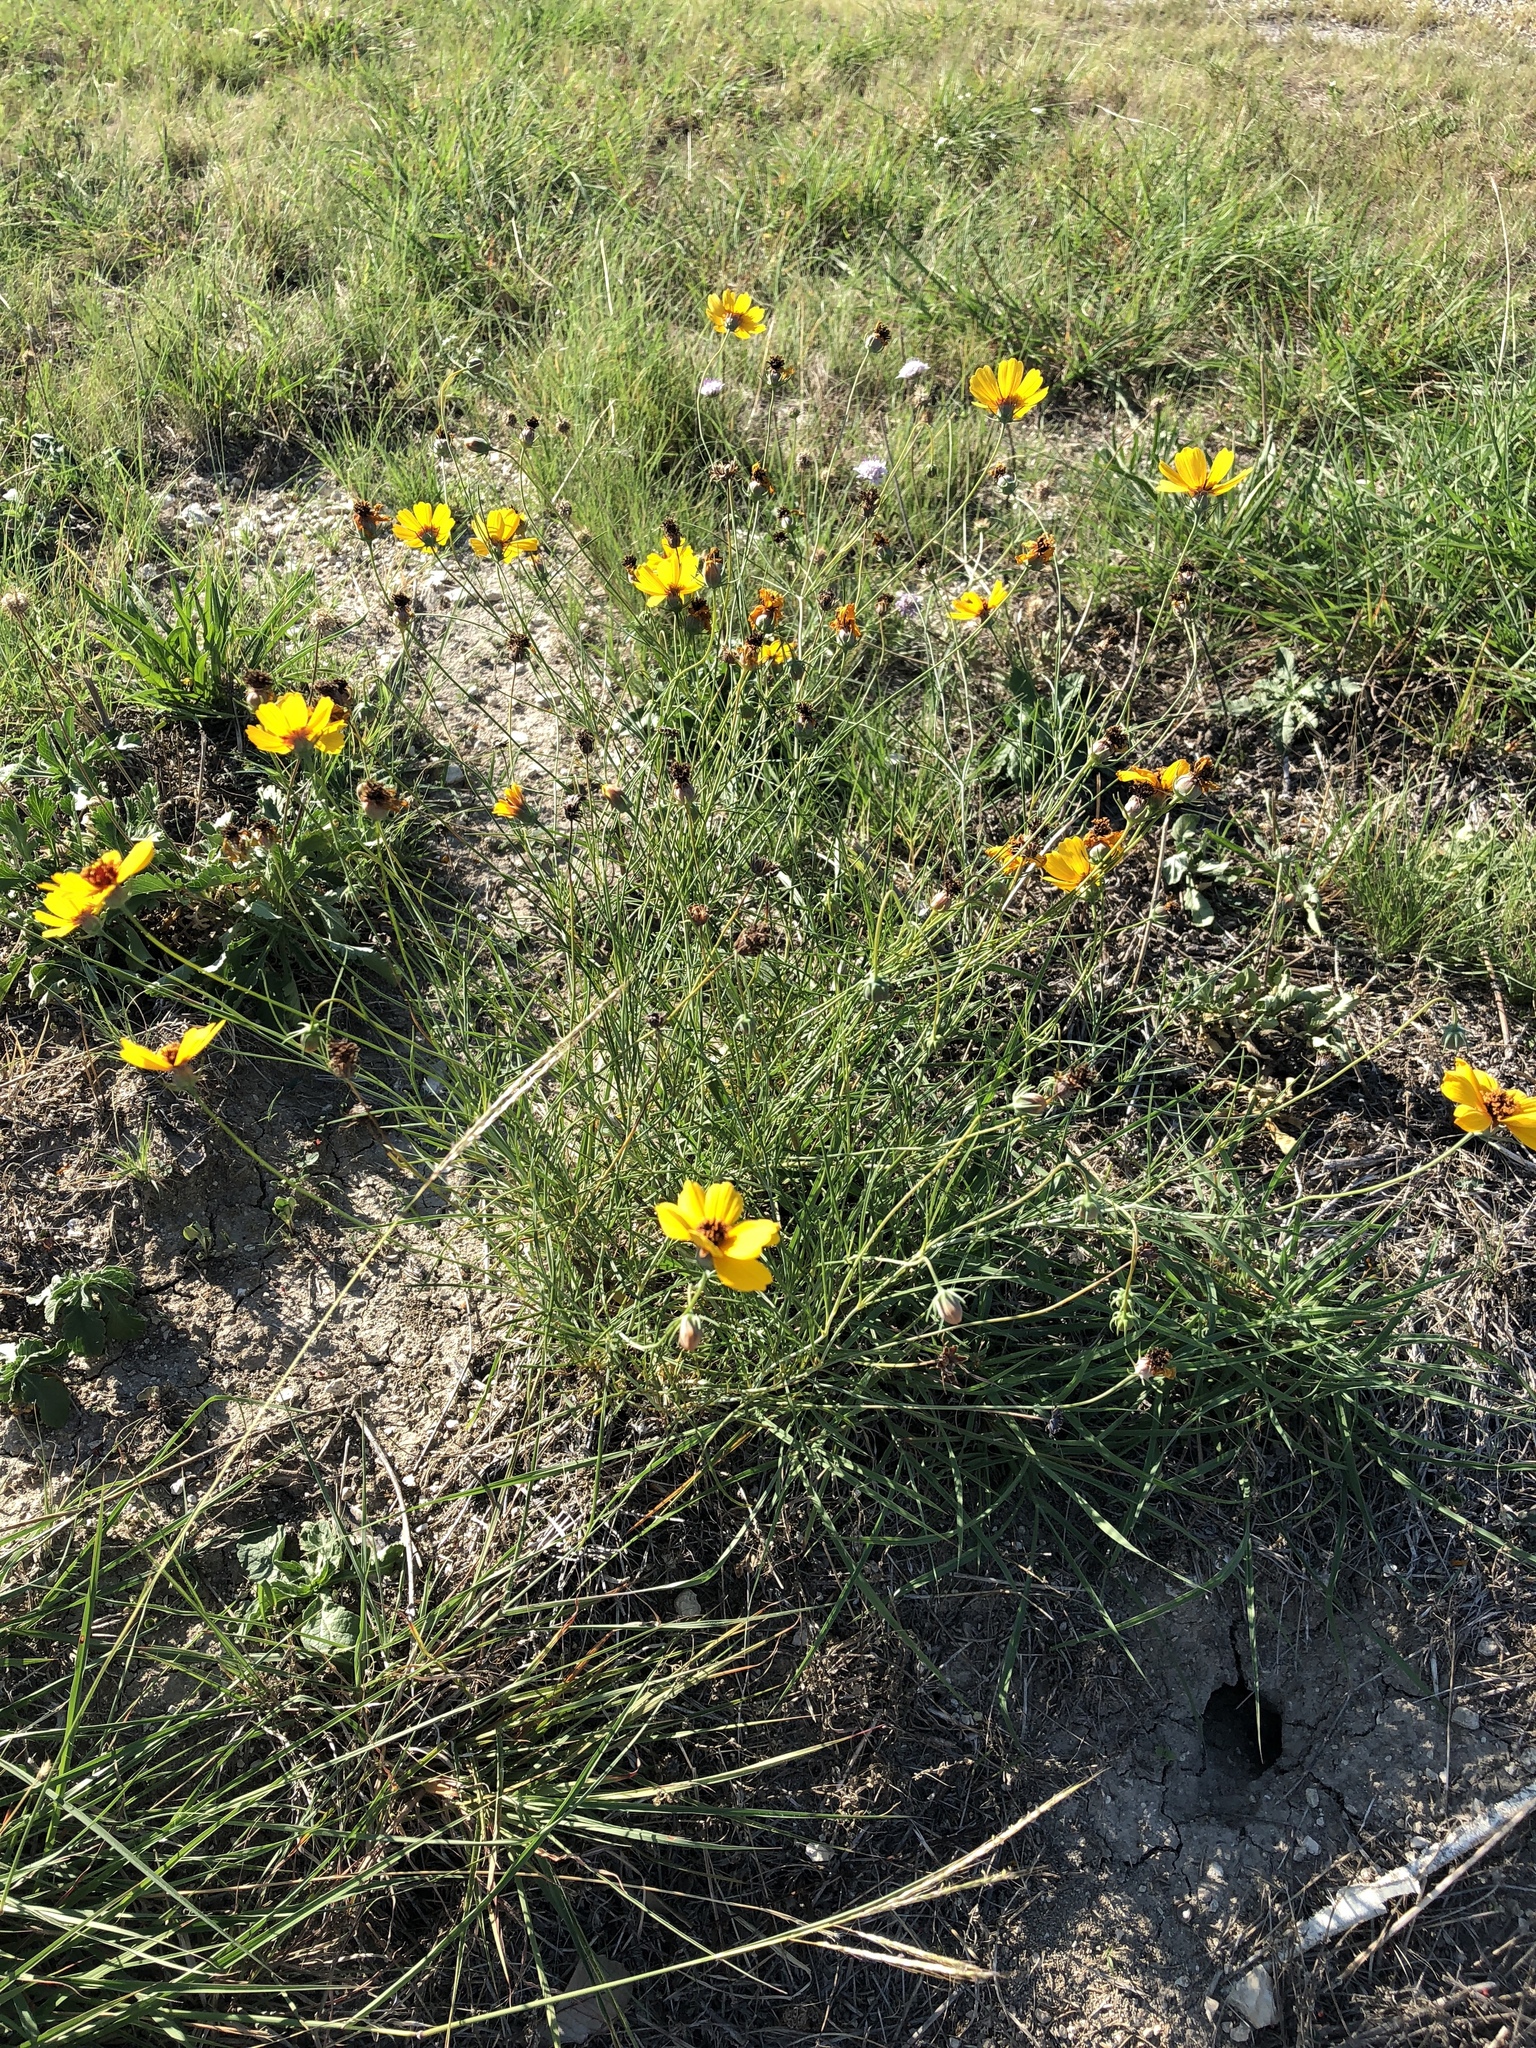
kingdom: Plantae
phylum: Tracheophyta
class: Magnoliopsida
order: Asterales
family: Asteraceae
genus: Thelesperma
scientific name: Thelesperma filifolium
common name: Stiff greenthread
